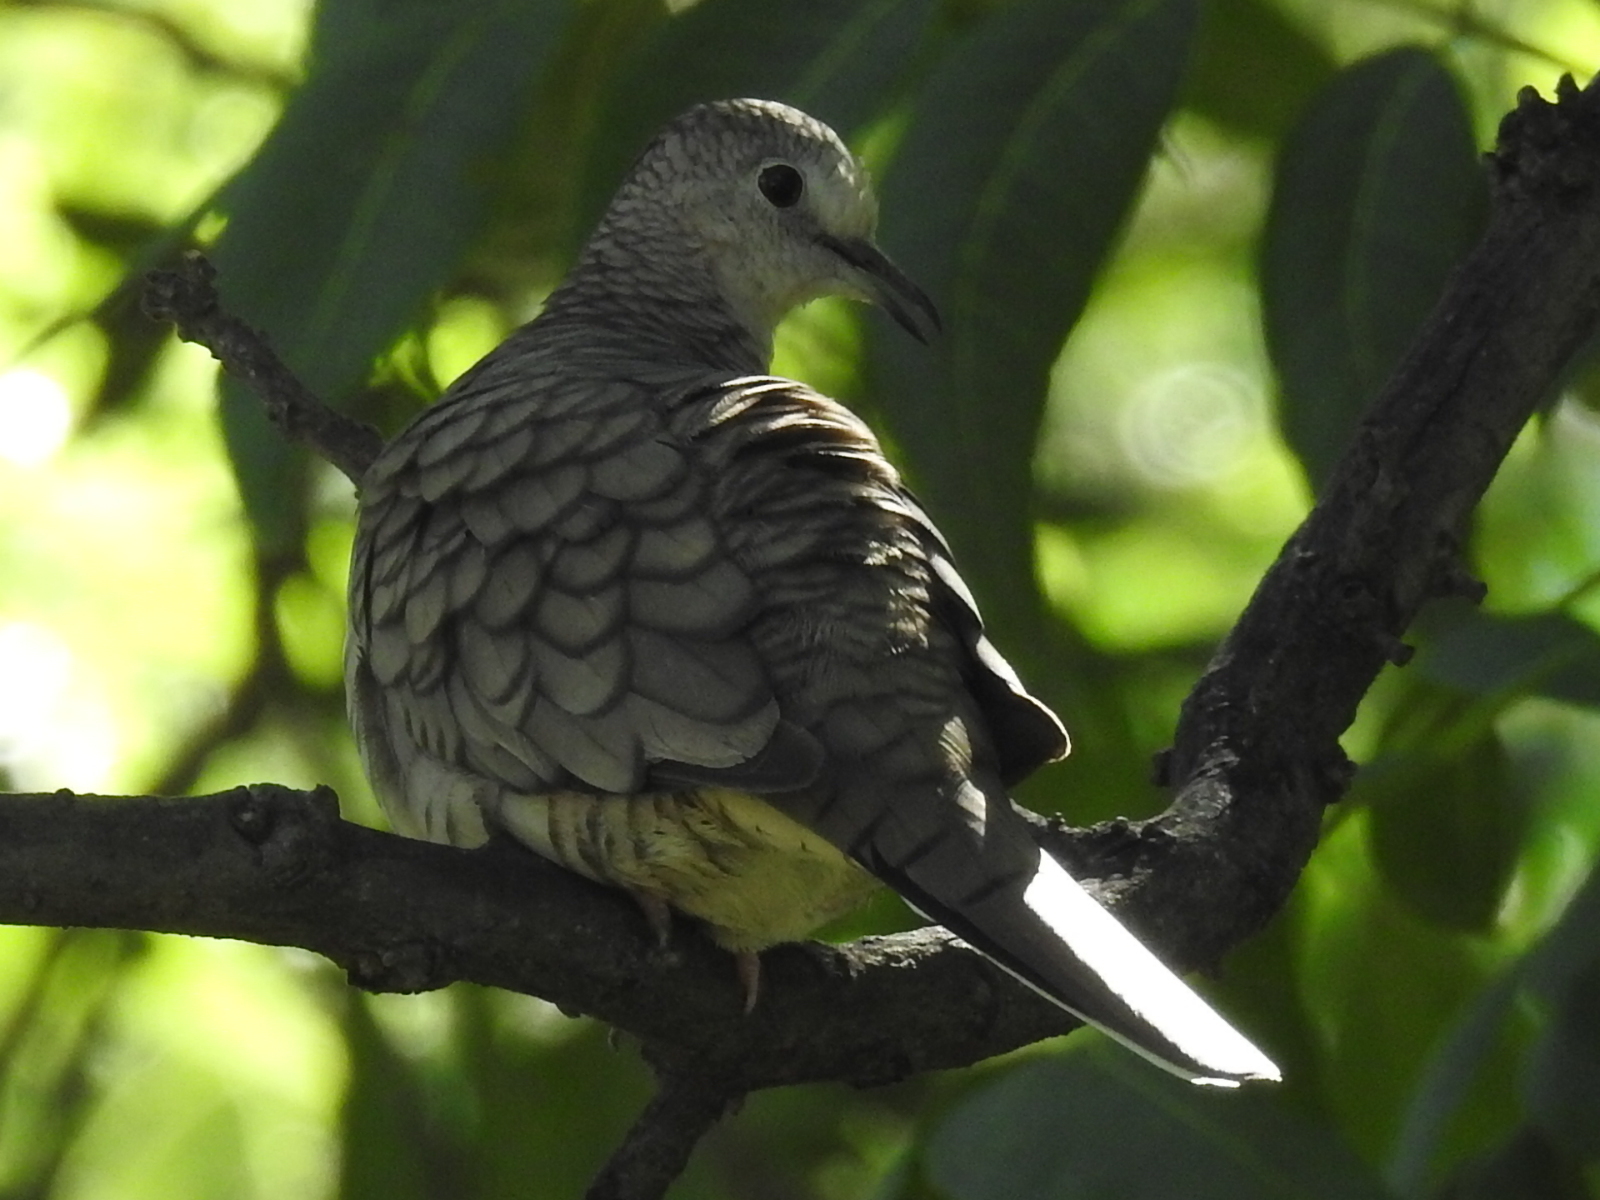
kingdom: Animalia
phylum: Chordata
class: Aves
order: Columbiformes
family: Columbidae
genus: Columbina
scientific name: Columbina inca
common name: Inca dove
